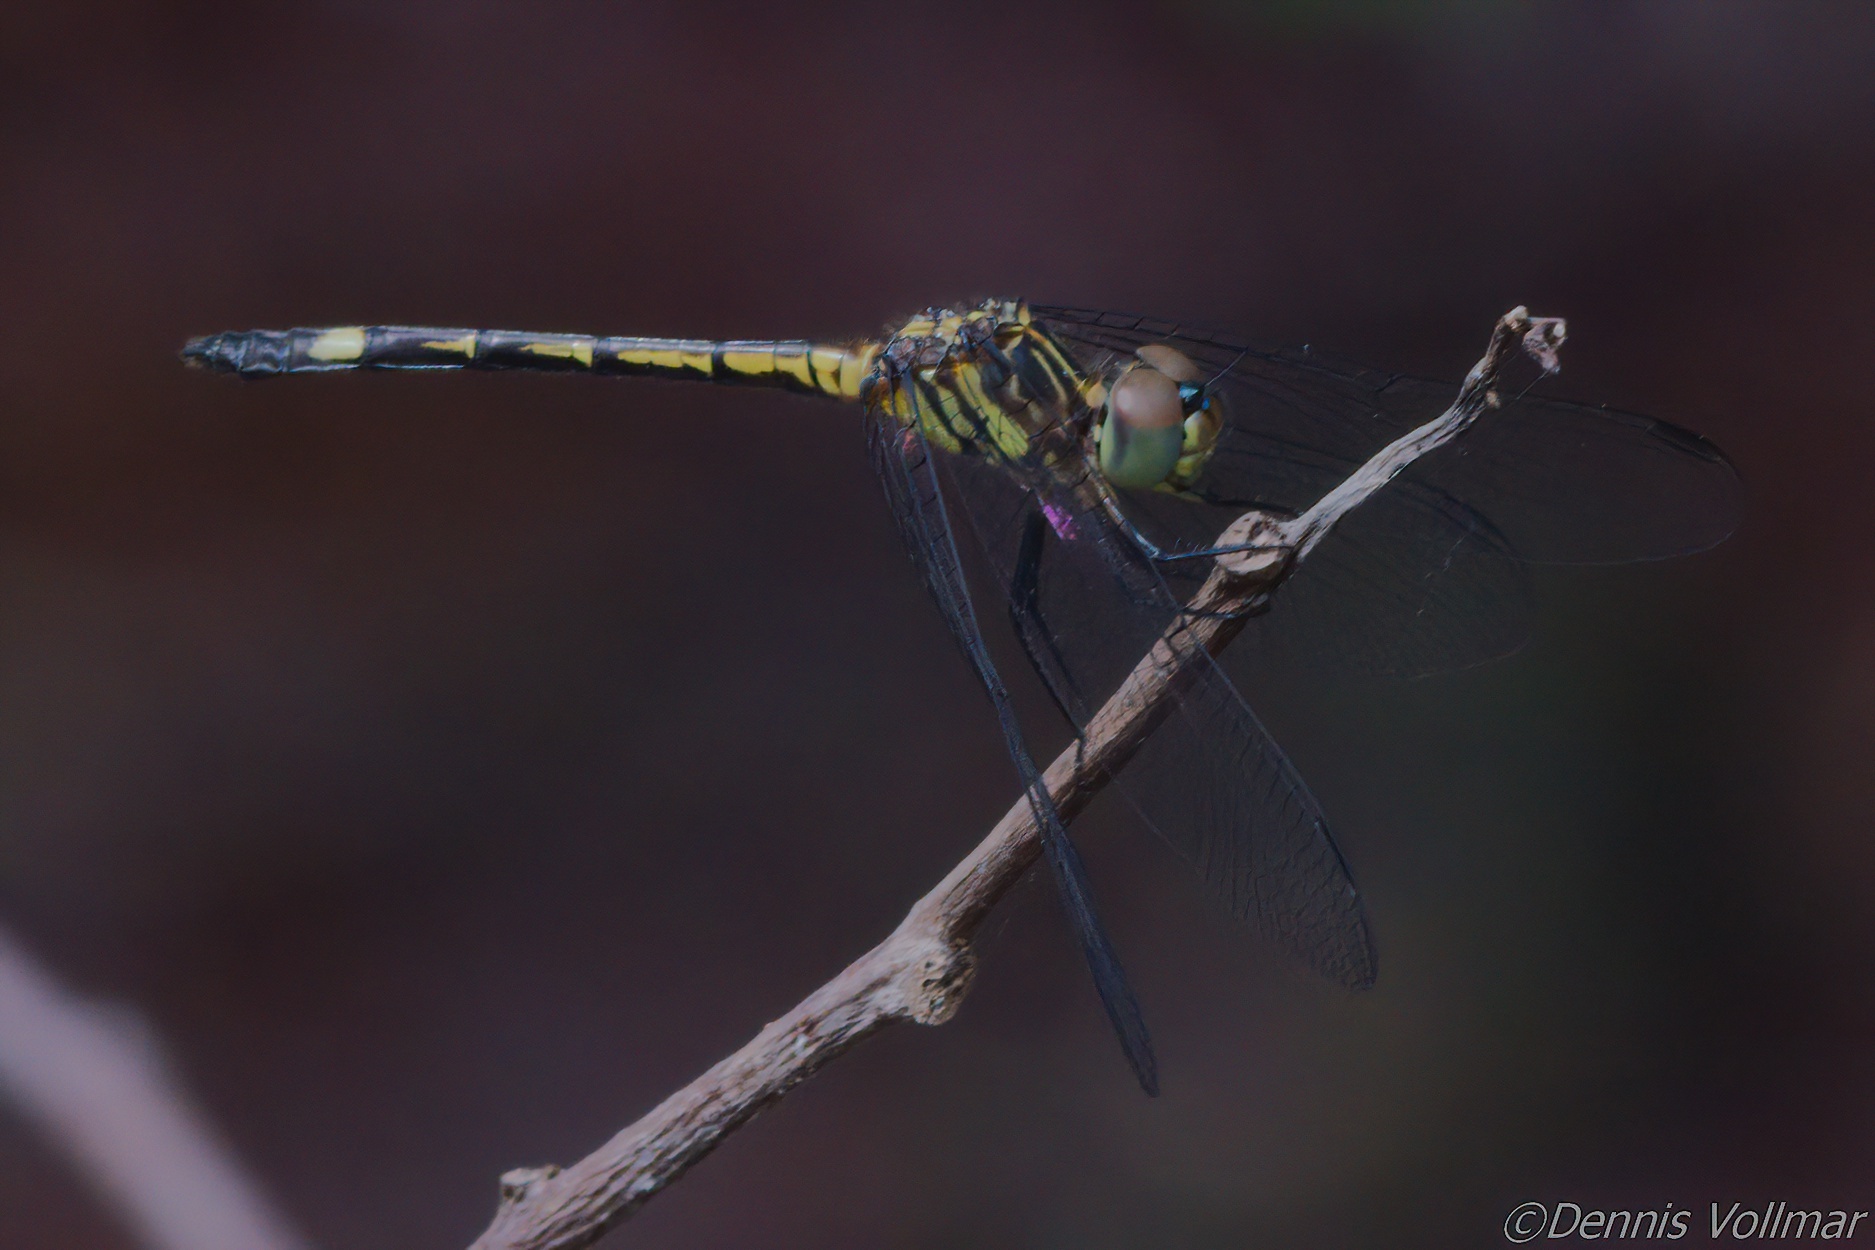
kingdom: Animalia
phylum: Arthropoda
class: Insecta
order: Odonata
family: Libellulidae
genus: Micrathyria
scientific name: Micrathyria didyma
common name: Three-striped dasher
